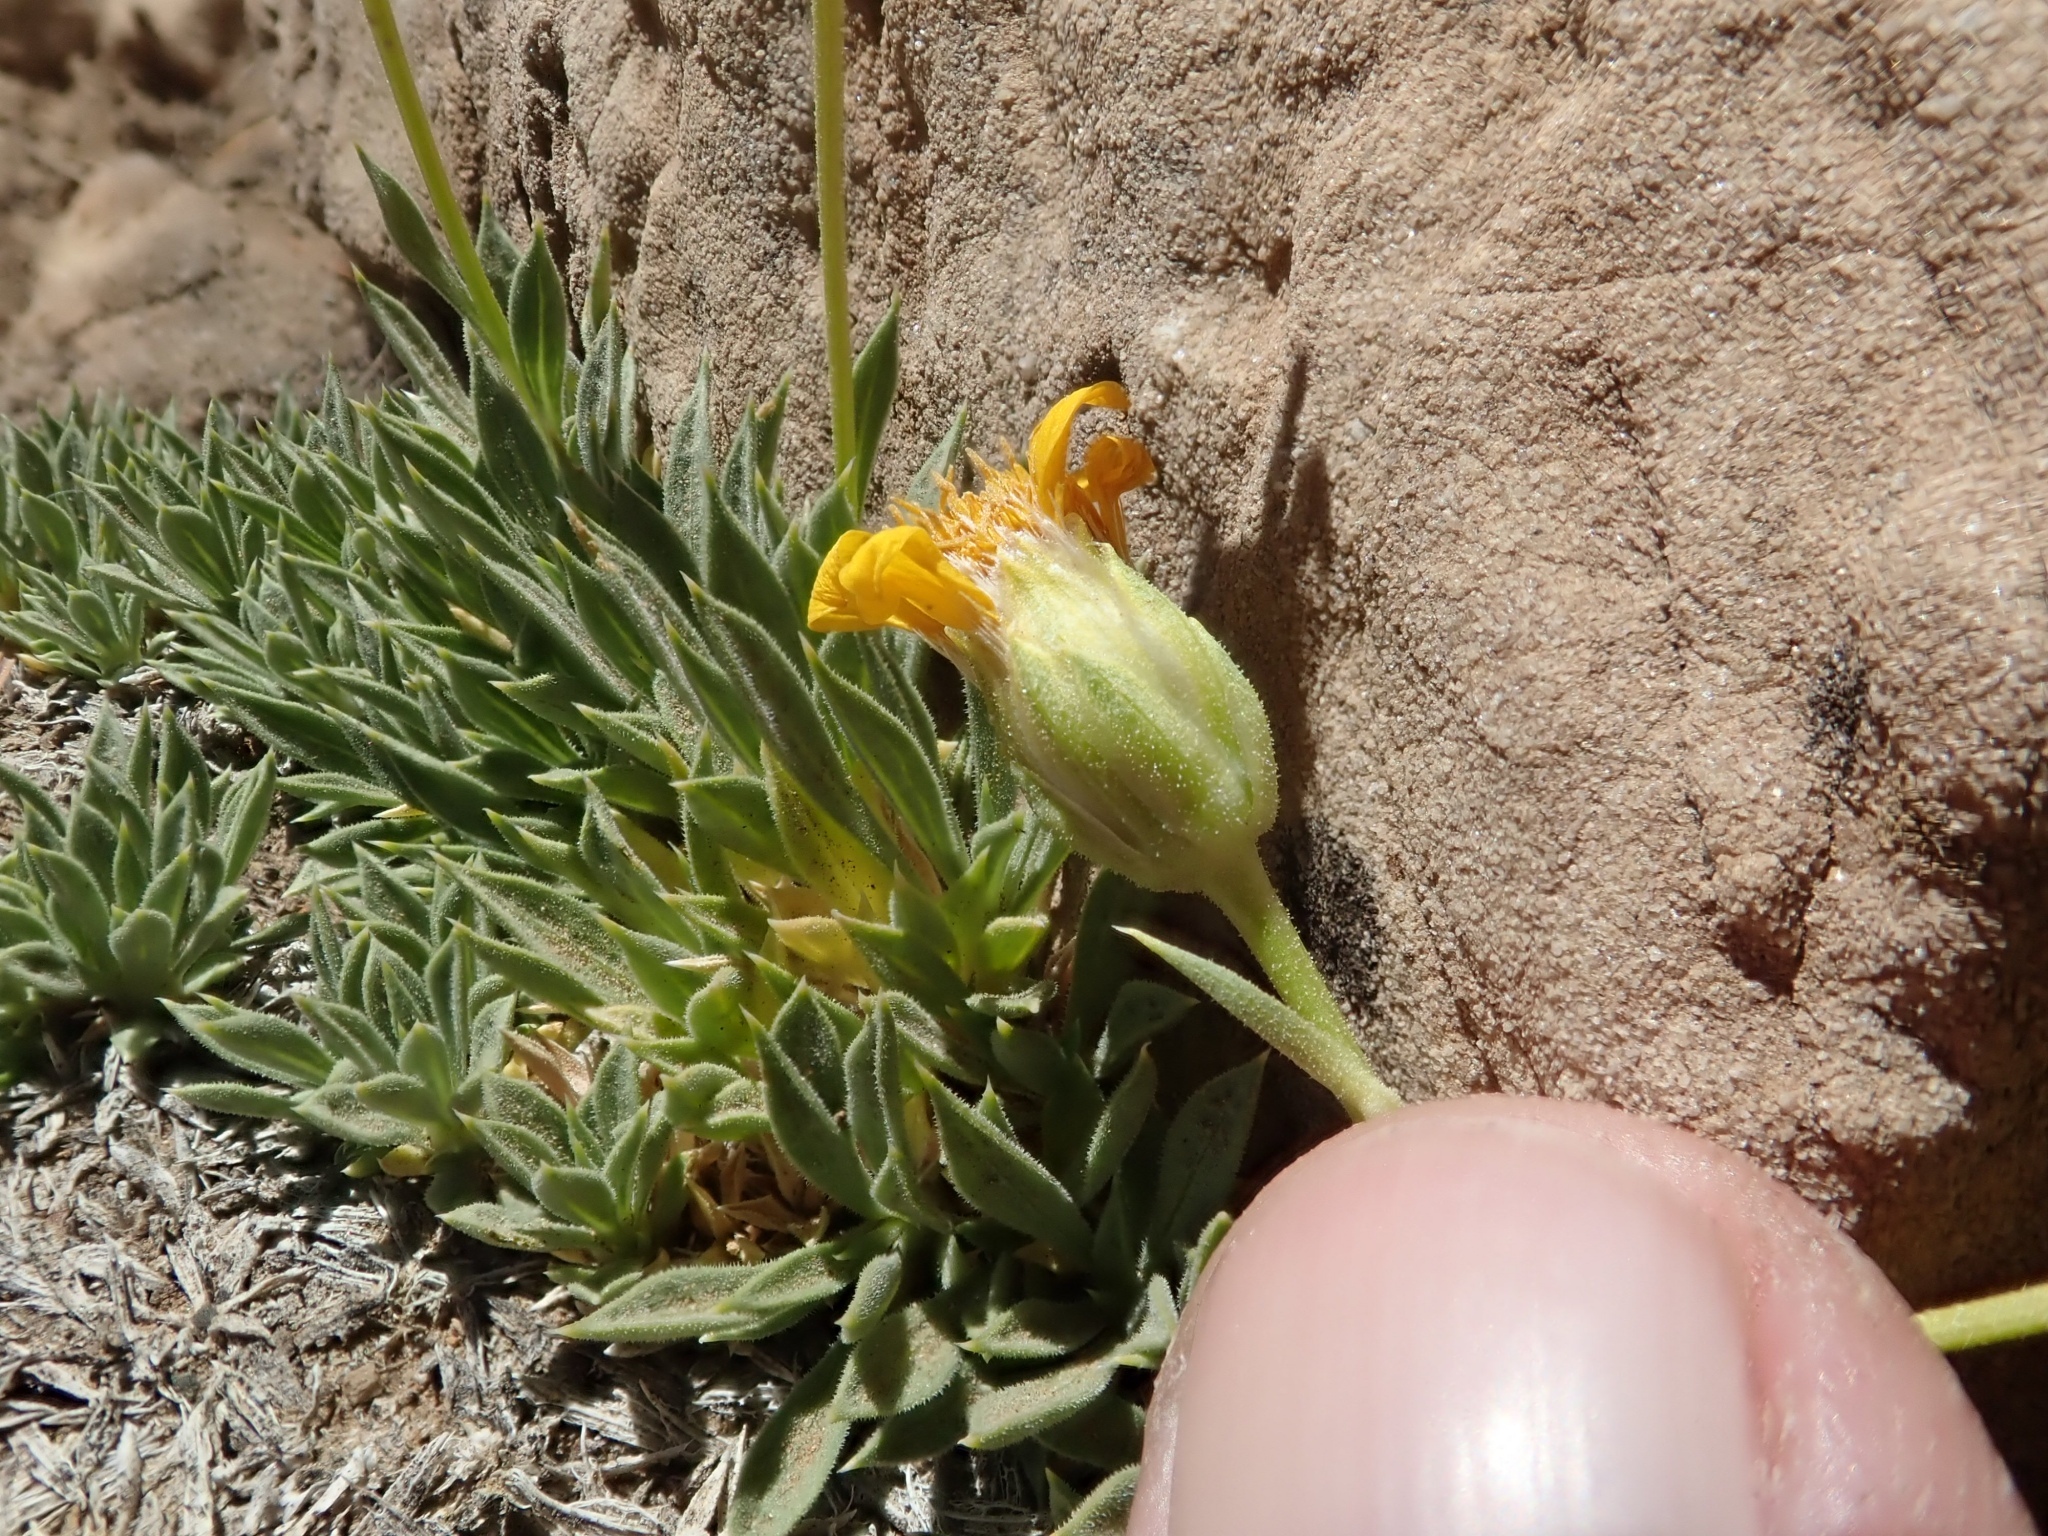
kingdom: Plantae
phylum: Tracheophyta
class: Magnoliopsida
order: Asterales
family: Asteraceae
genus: Stenotus
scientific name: Stenotus acaulis
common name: Stemless goldenweed
